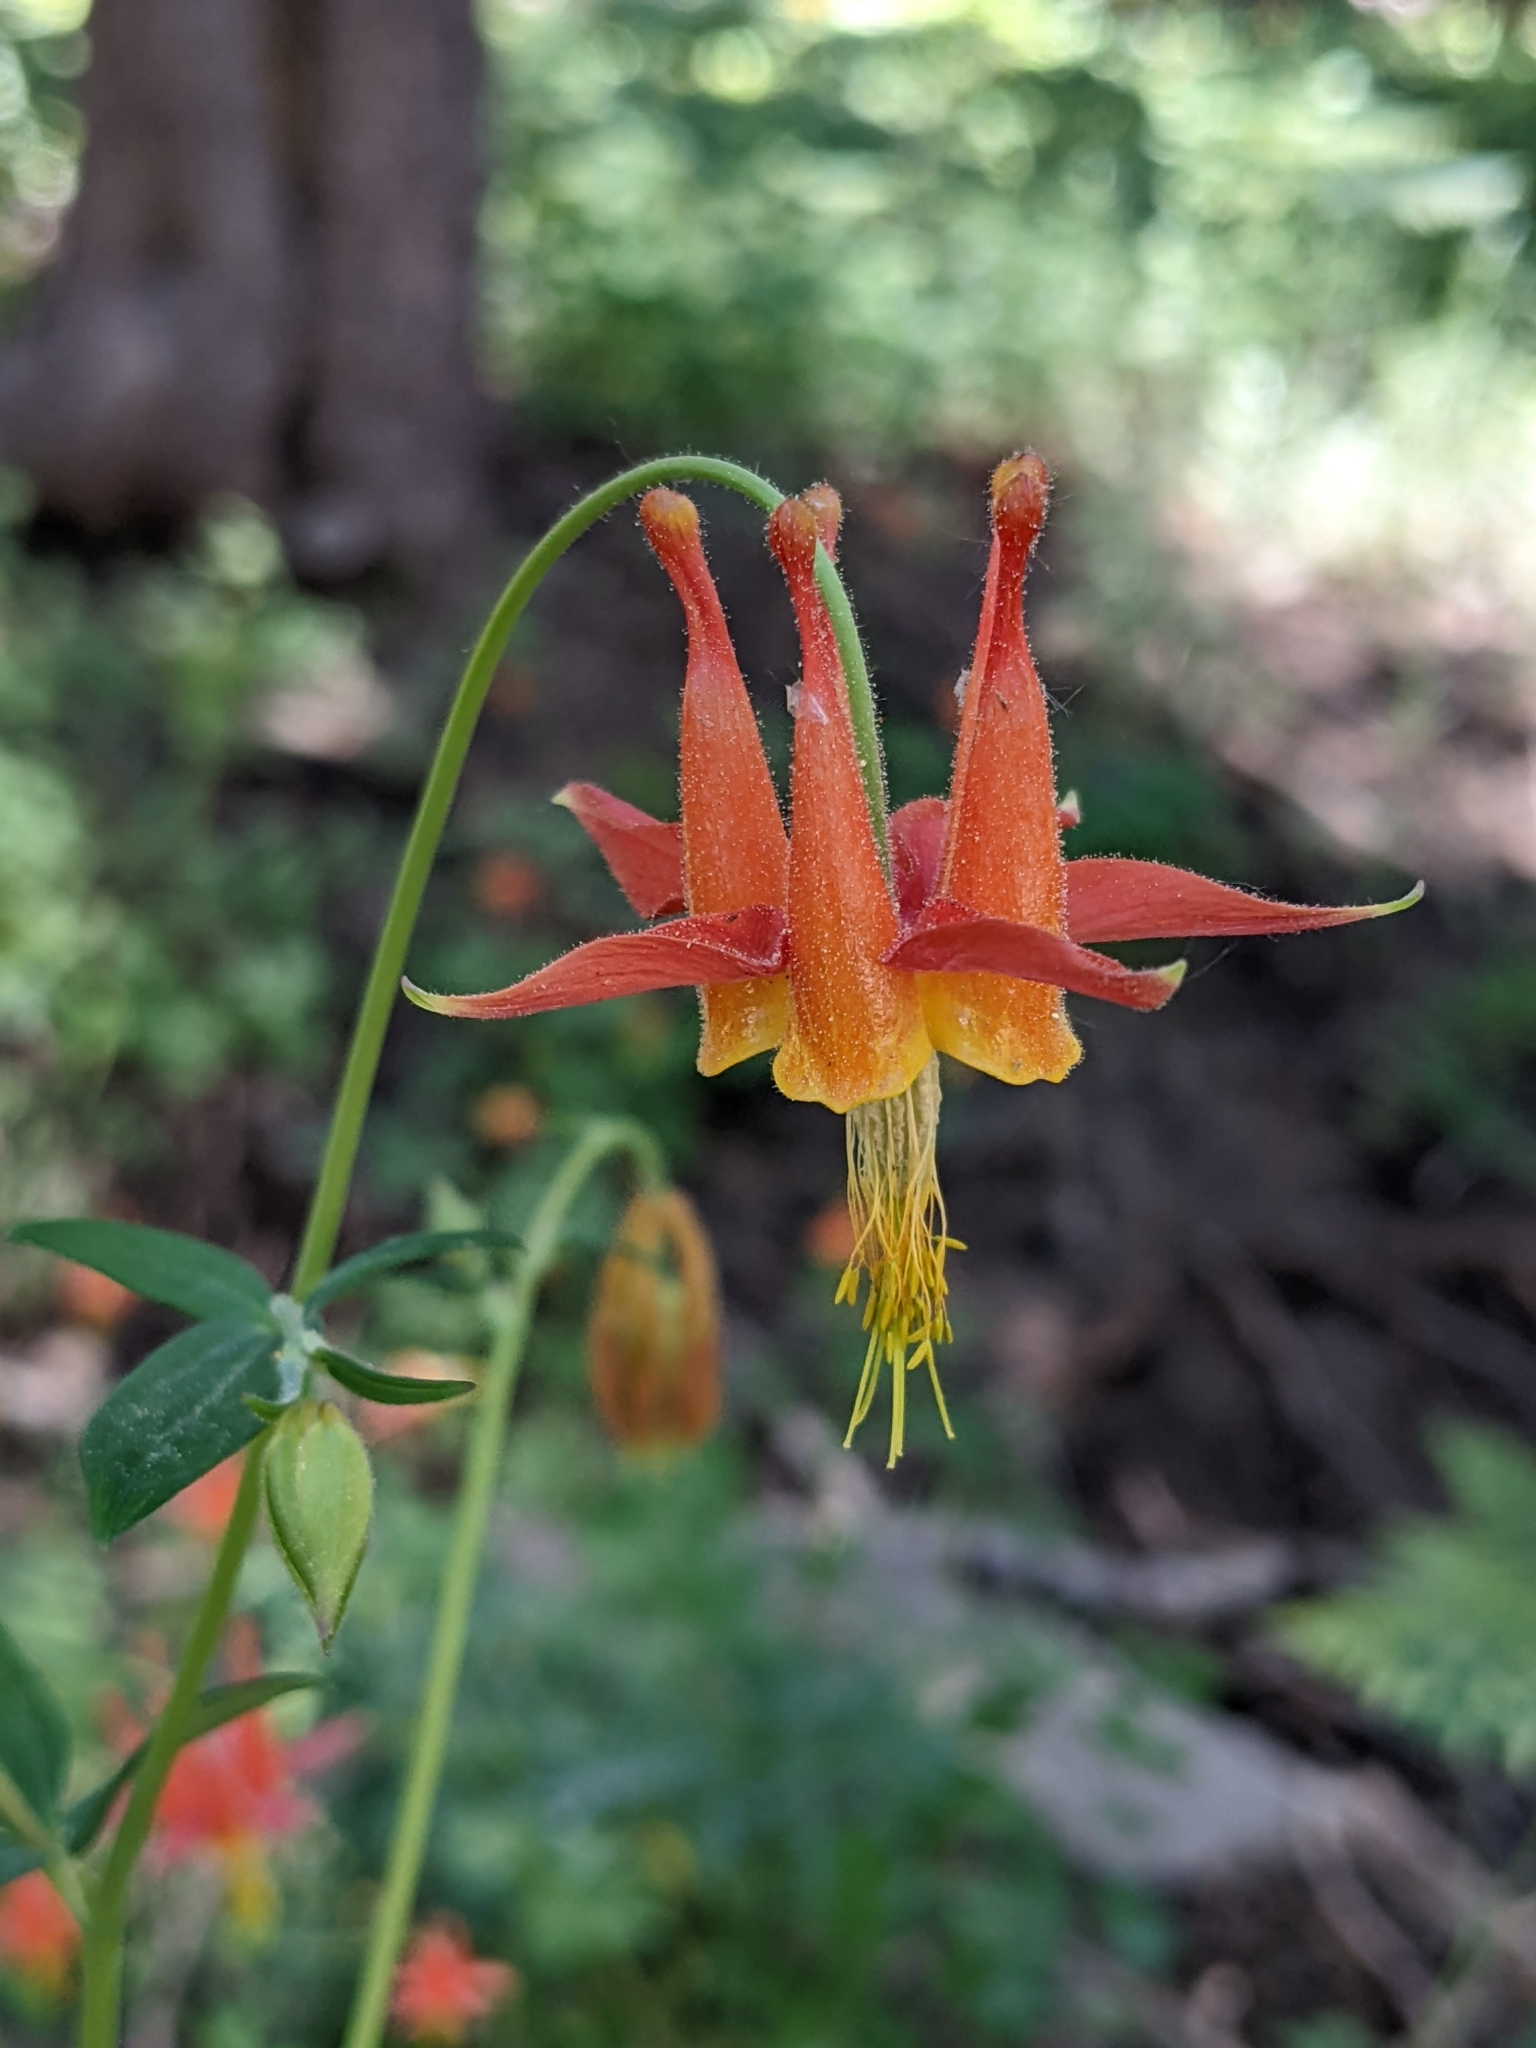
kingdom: Plantae
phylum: Tracheophyta
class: Magnoliopsida
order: Ranunculales
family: Ranunculaceae
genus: Aquilegia
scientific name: Aquilegia formosa
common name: Sitka columbine
